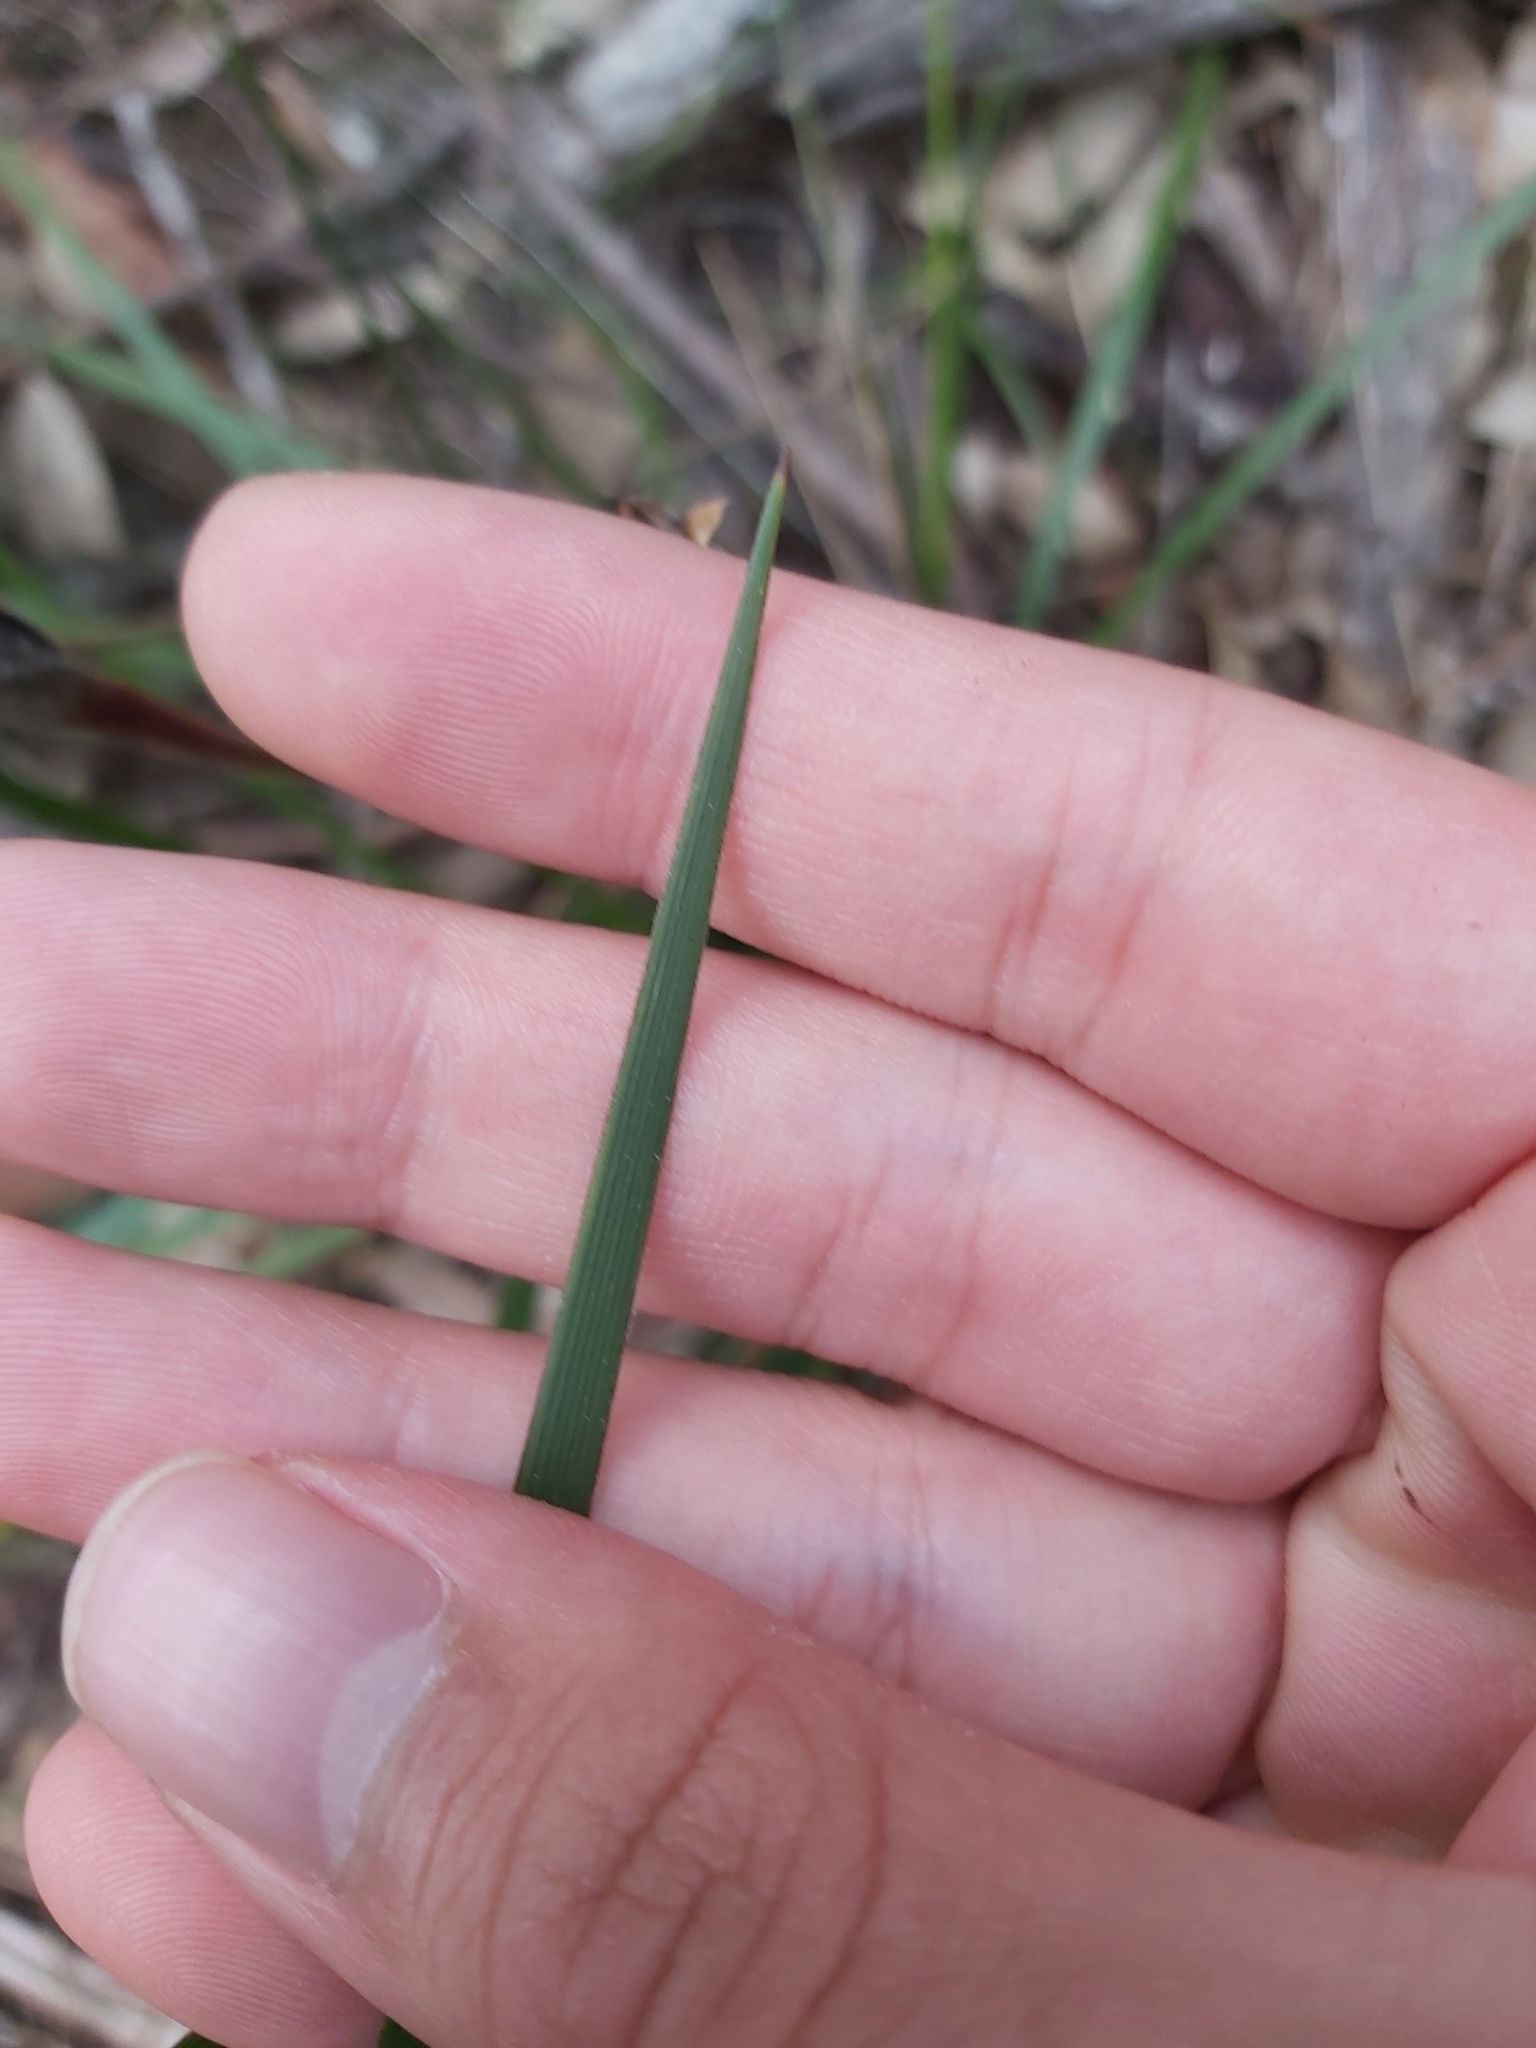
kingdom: Plantae
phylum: Tracheophyta
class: Liliopsida
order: Asparagales
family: Iridaceae
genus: Patersonia
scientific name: Patersonia sericea
